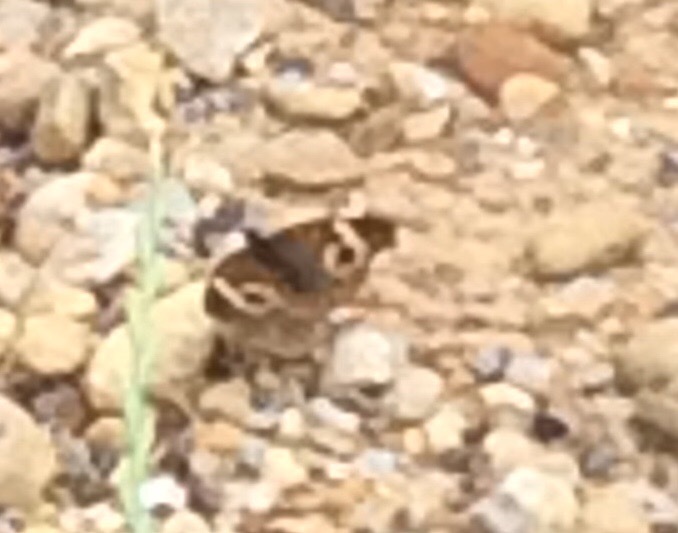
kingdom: Animalia
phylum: Arthropoda
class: Insecta
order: Lepidoptera
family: Nymphalidae
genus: Junonia
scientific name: Junonia coenia
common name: Common buckeye
